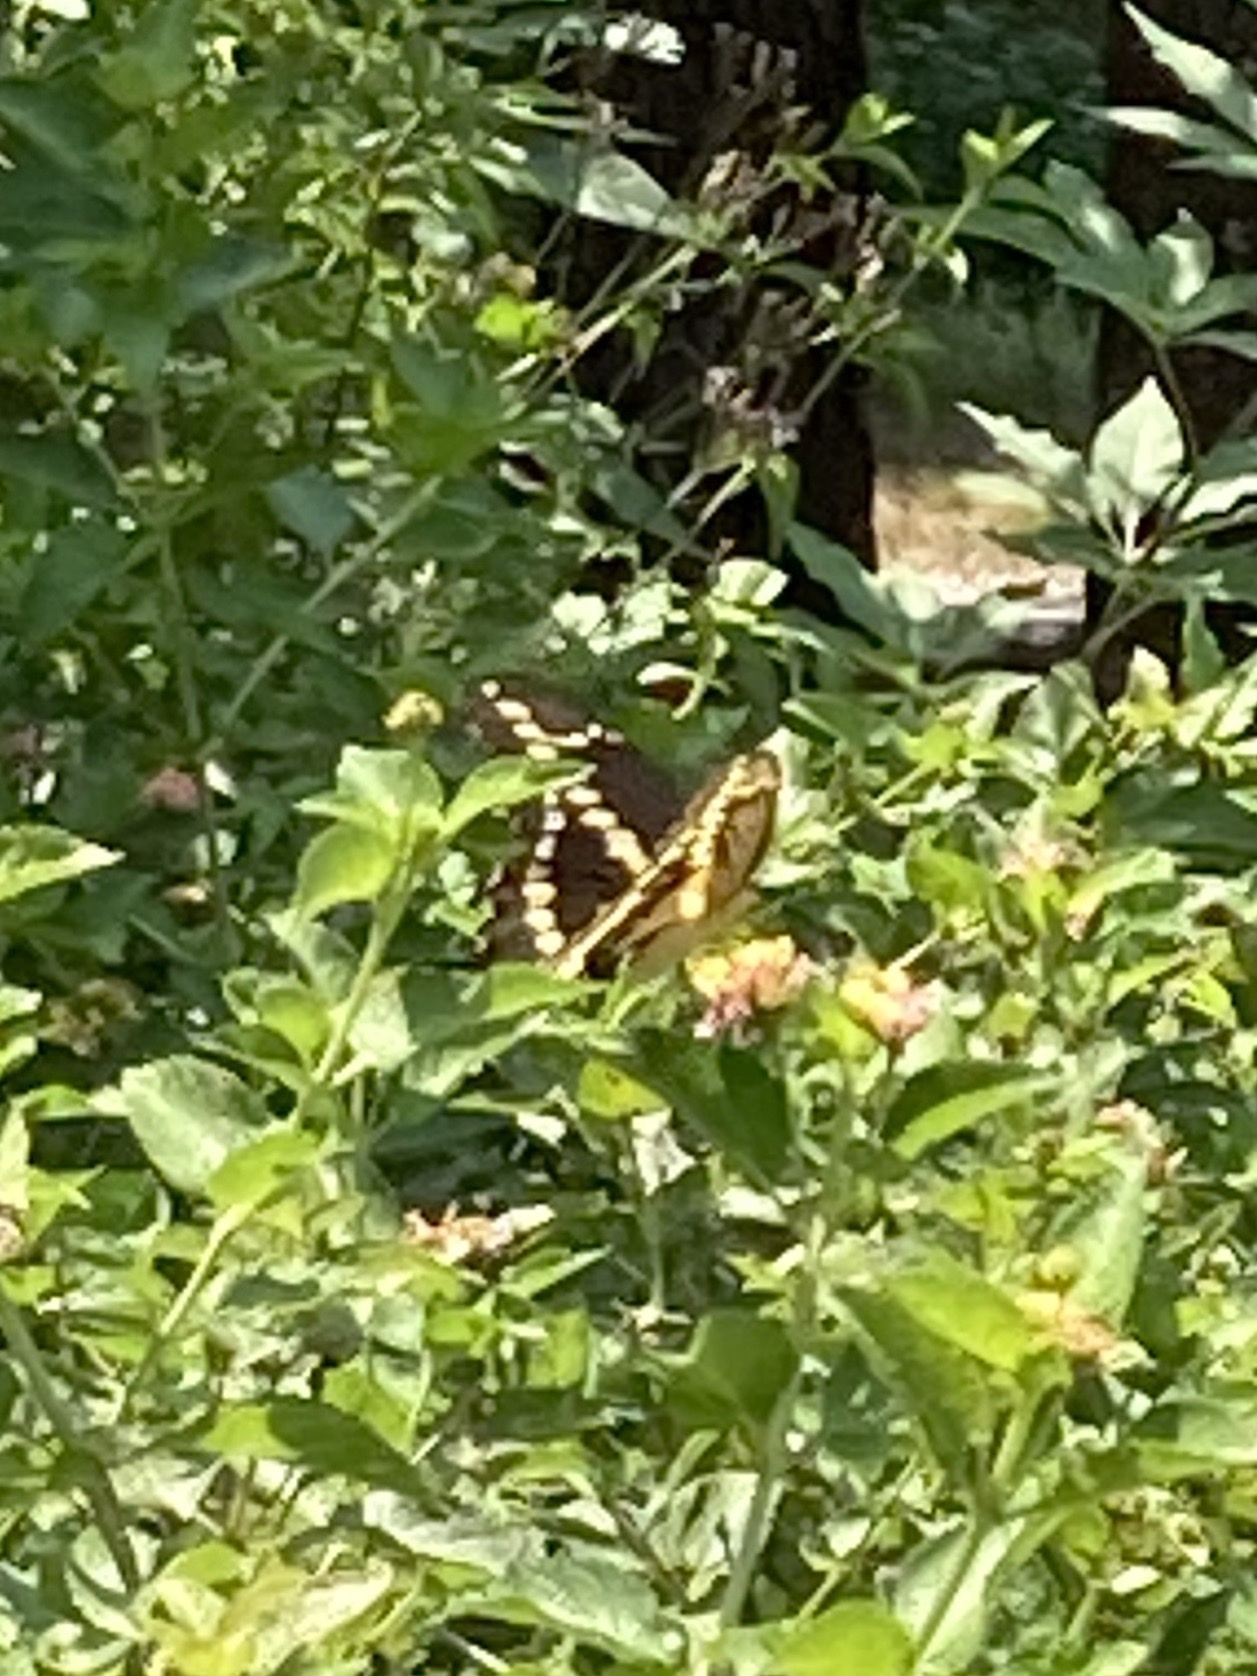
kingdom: Animalia
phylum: Arthropoda
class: Insecta
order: Lepidoptera
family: Papilionidae
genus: Papilio
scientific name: Papilio cresphontes
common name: Giant swallowtail
